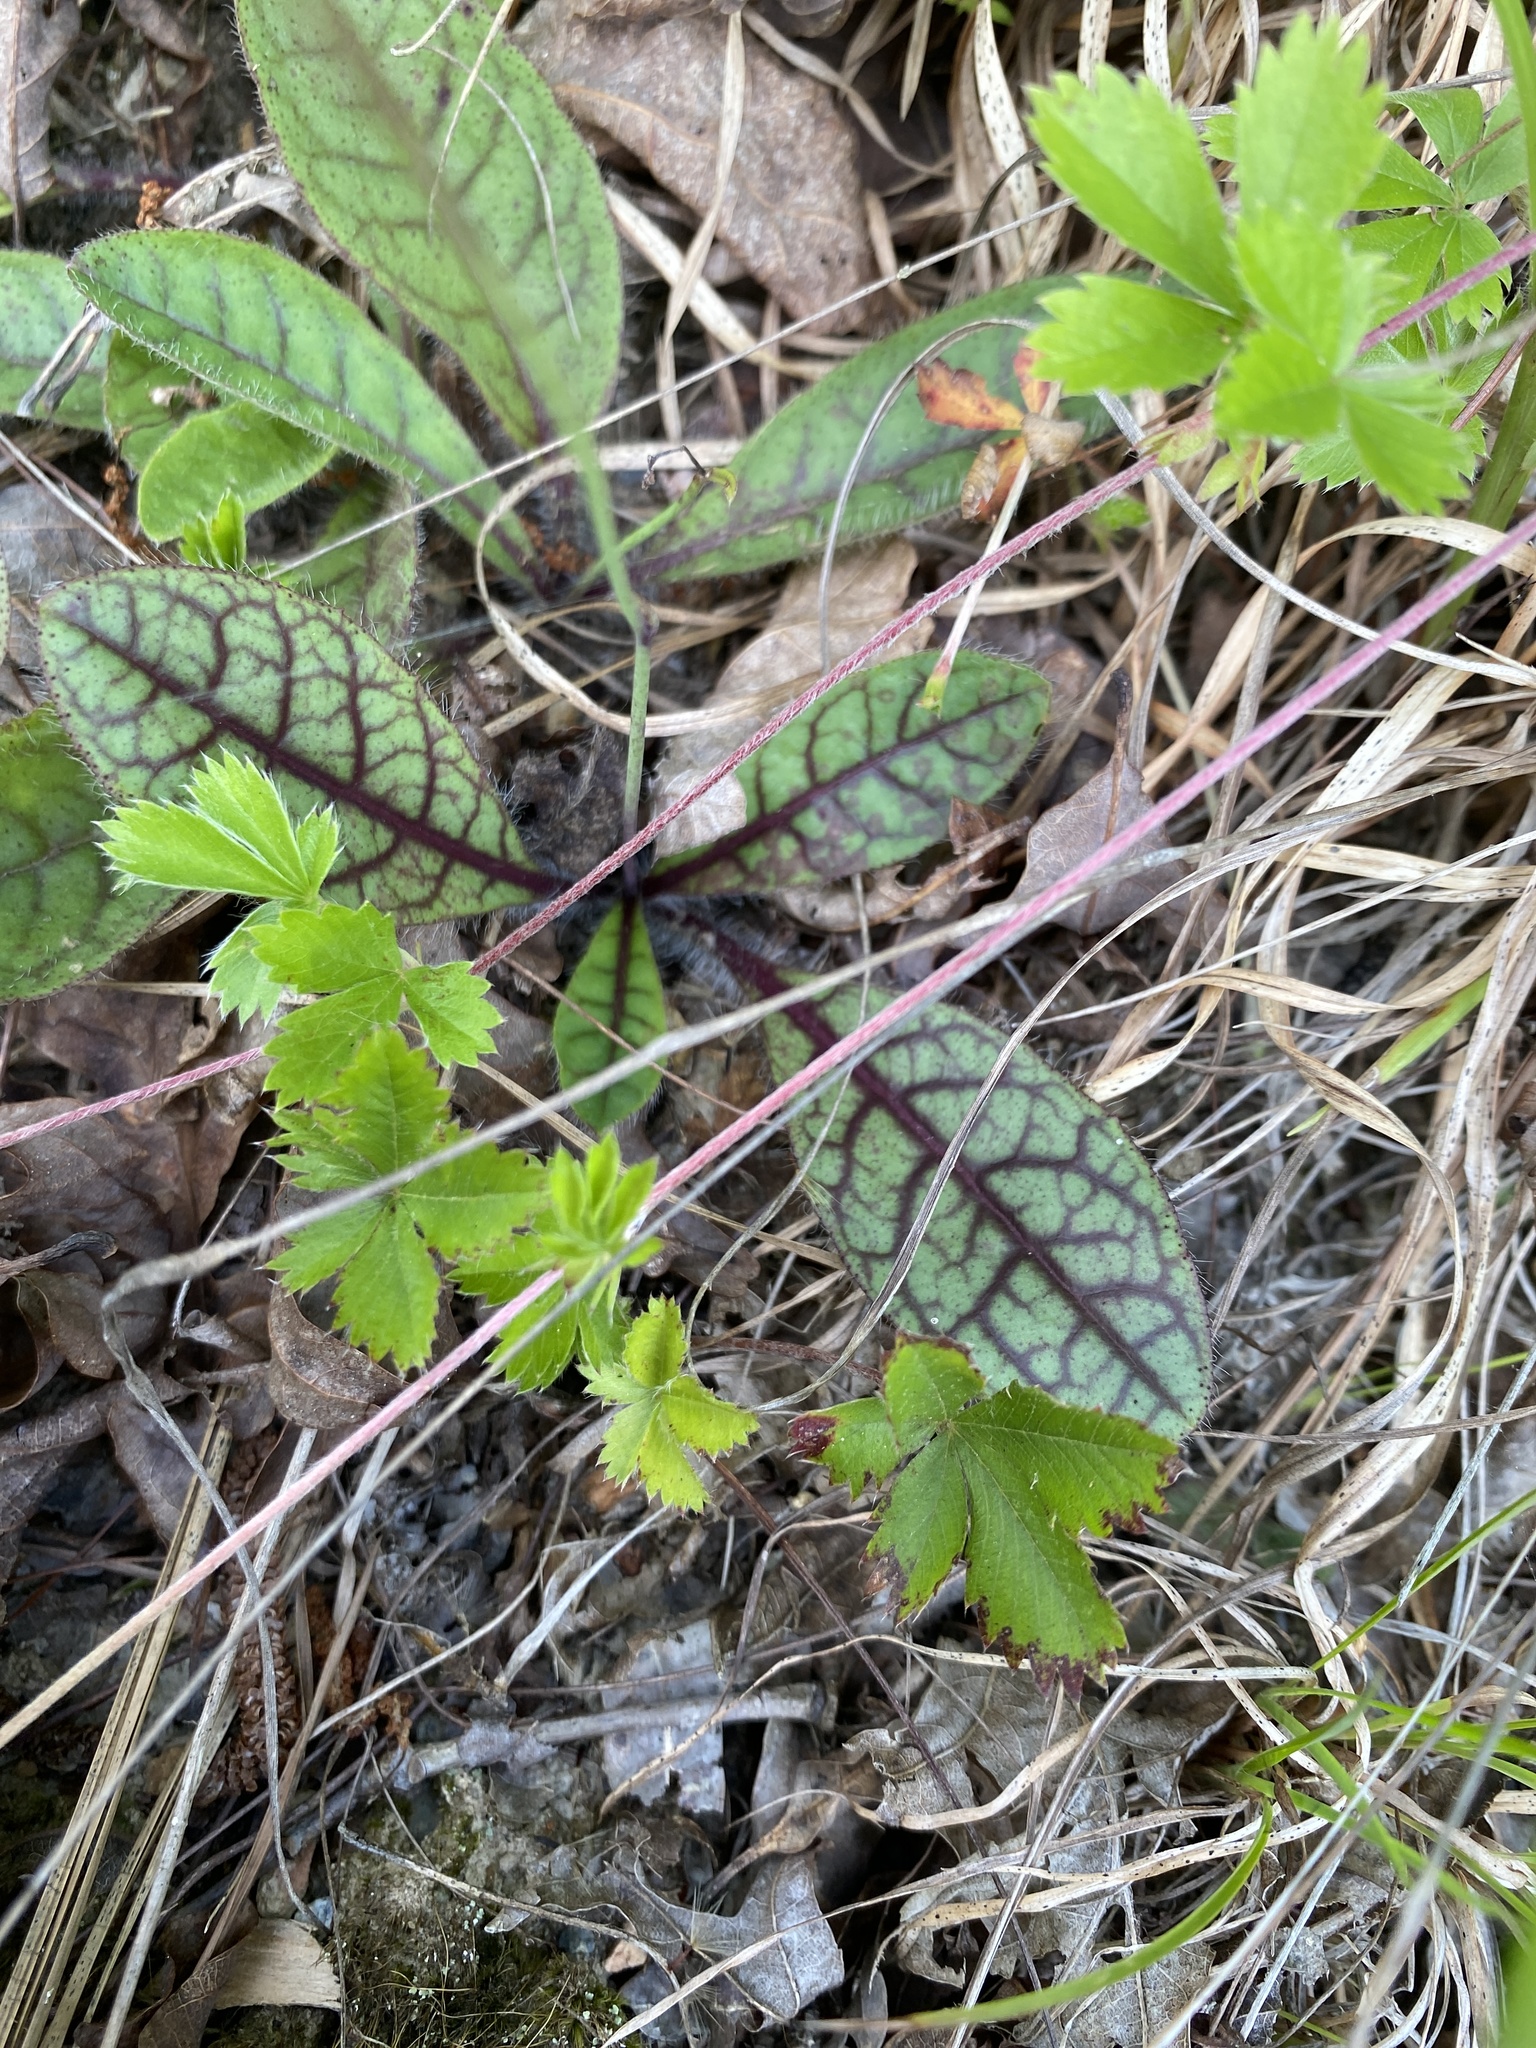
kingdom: Plantae
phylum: Tracheophyta
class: Magnoliopsida
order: Asterales
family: Asteraceae
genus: Hieracium
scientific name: Hieracium venosum
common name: Rattlesnake hawkweed
